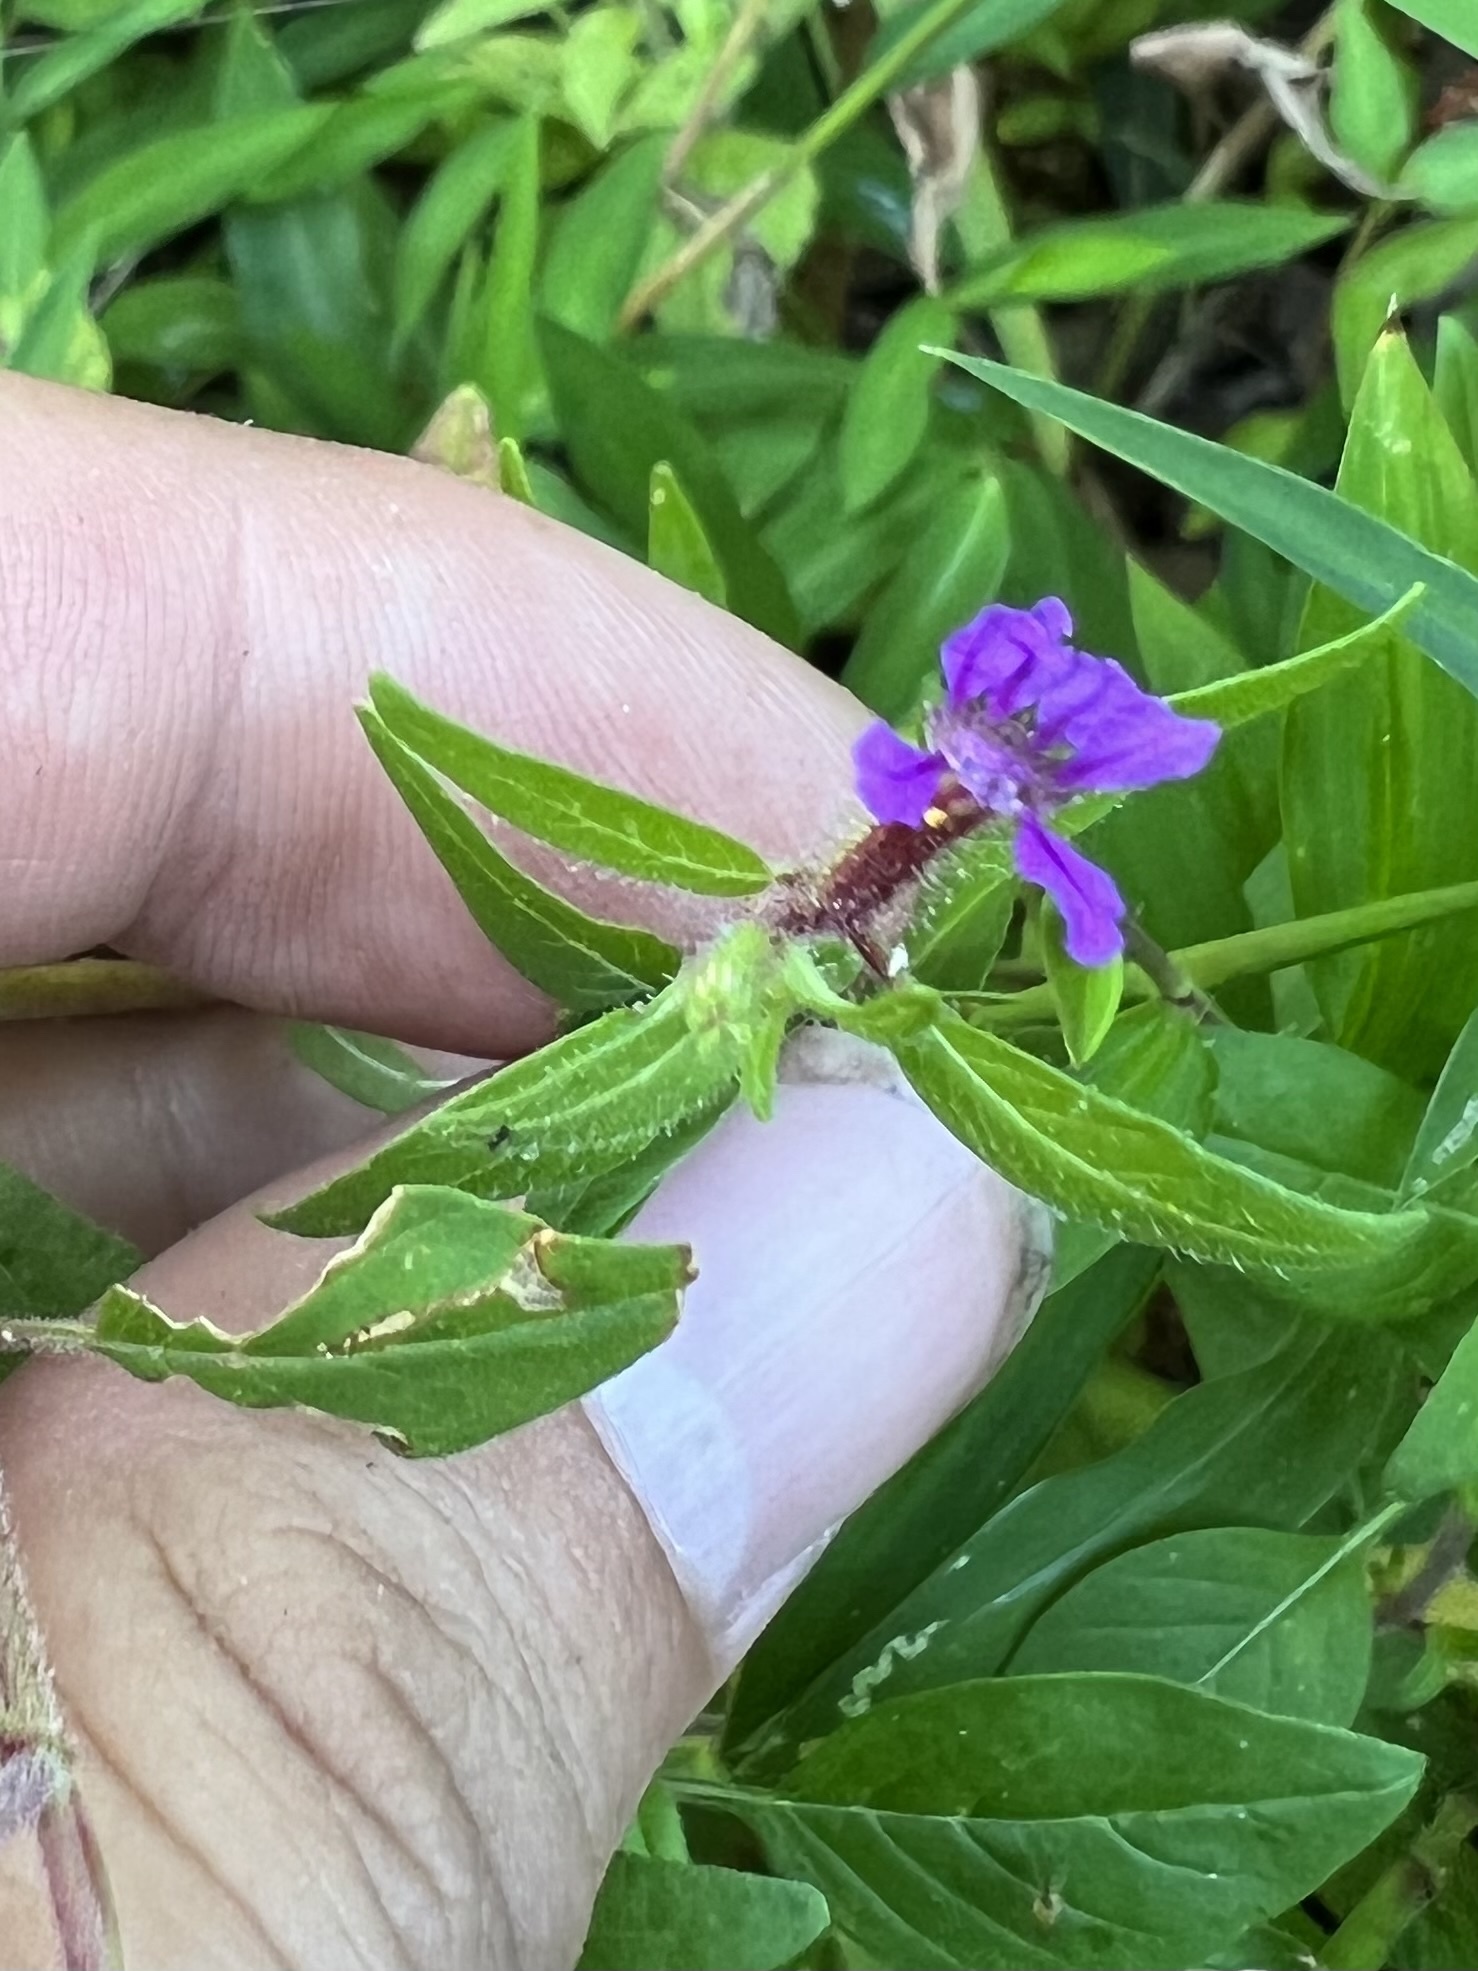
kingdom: Plantae
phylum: Tracheophyta
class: Magnoliopsida
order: Myrtales
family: Lythraceae
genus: Cuphea
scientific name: Cuphea viscosissima
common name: Clammy cuphea
